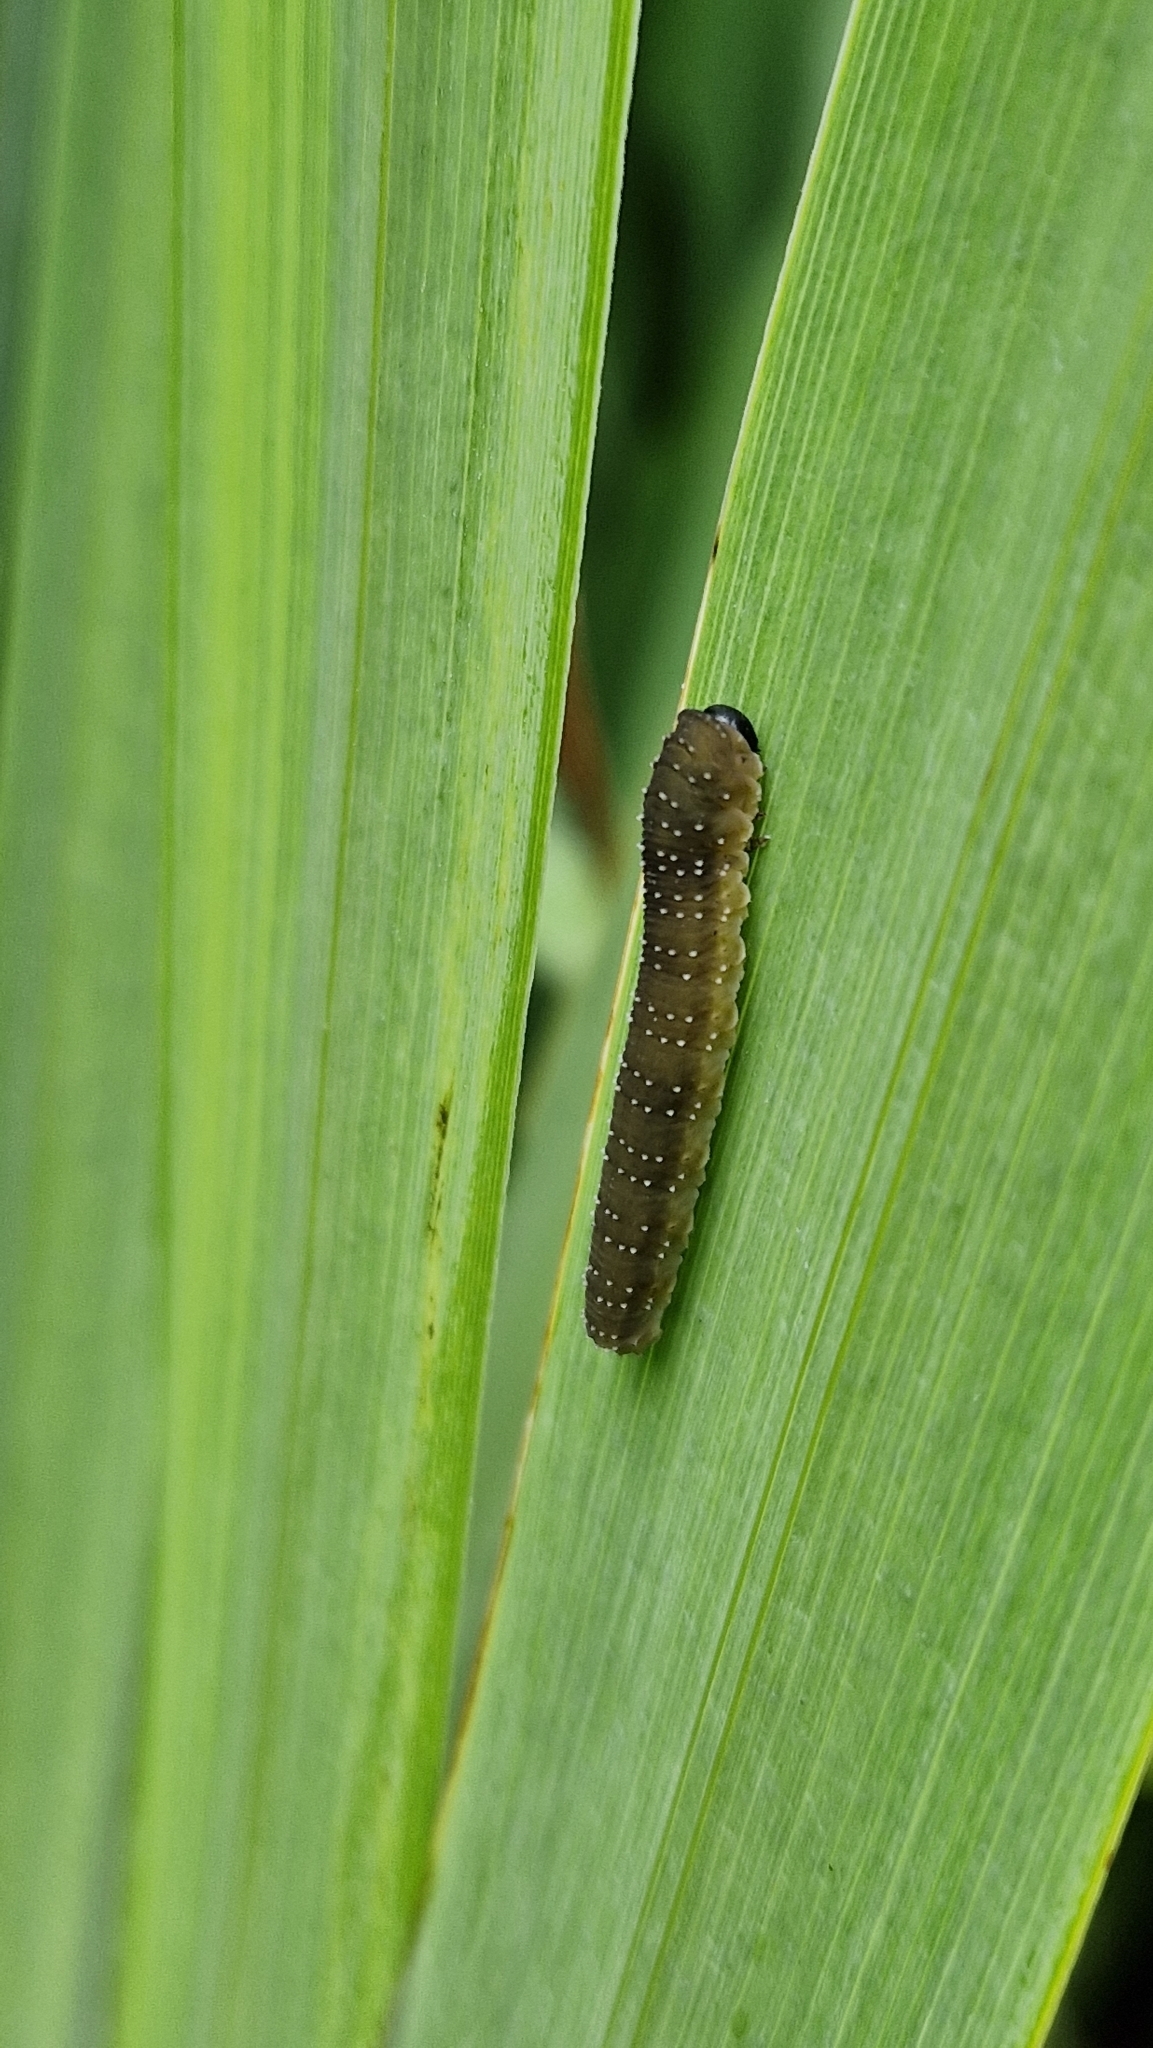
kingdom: Animalia
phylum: Arthropoda
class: Insecta
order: Hymenoptera
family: Tenthredinidae
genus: Rhadinoceraea
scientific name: Rhadinoceraea micans
